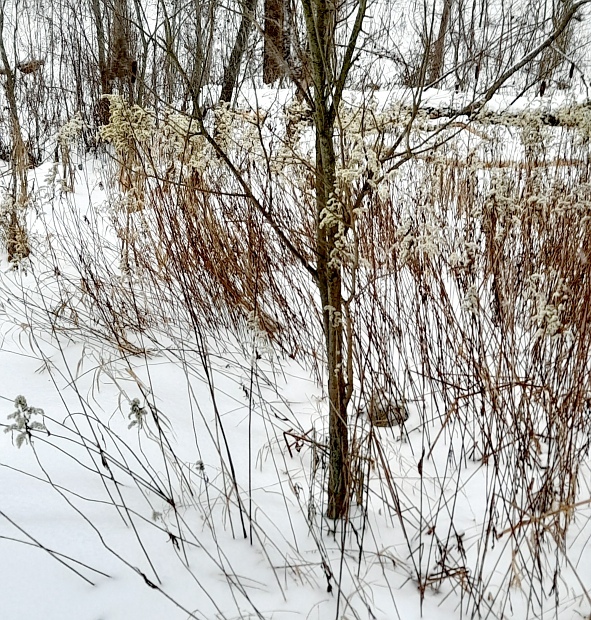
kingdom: Plantae
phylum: Tracheophyta
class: Magnoliopsida
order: Asterales
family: Asteraceae
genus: Solidago
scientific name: Solidago gigantea
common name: Giant goldenrod
